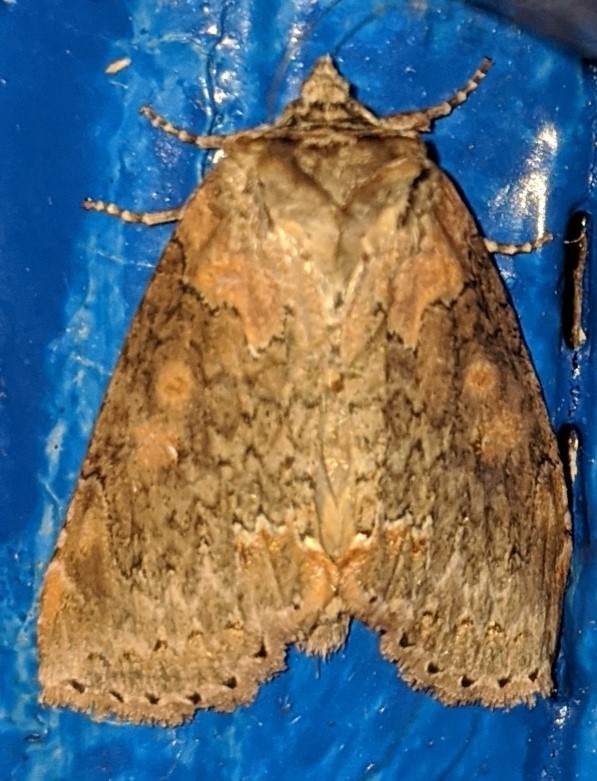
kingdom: Animalia
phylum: Arthropoda
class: Insecta
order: Lepidoptera
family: Drepanidae
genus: Pseudothyatira
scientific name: Pseudothyatira cymatophoroides
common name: Tufted thyatirid moth
